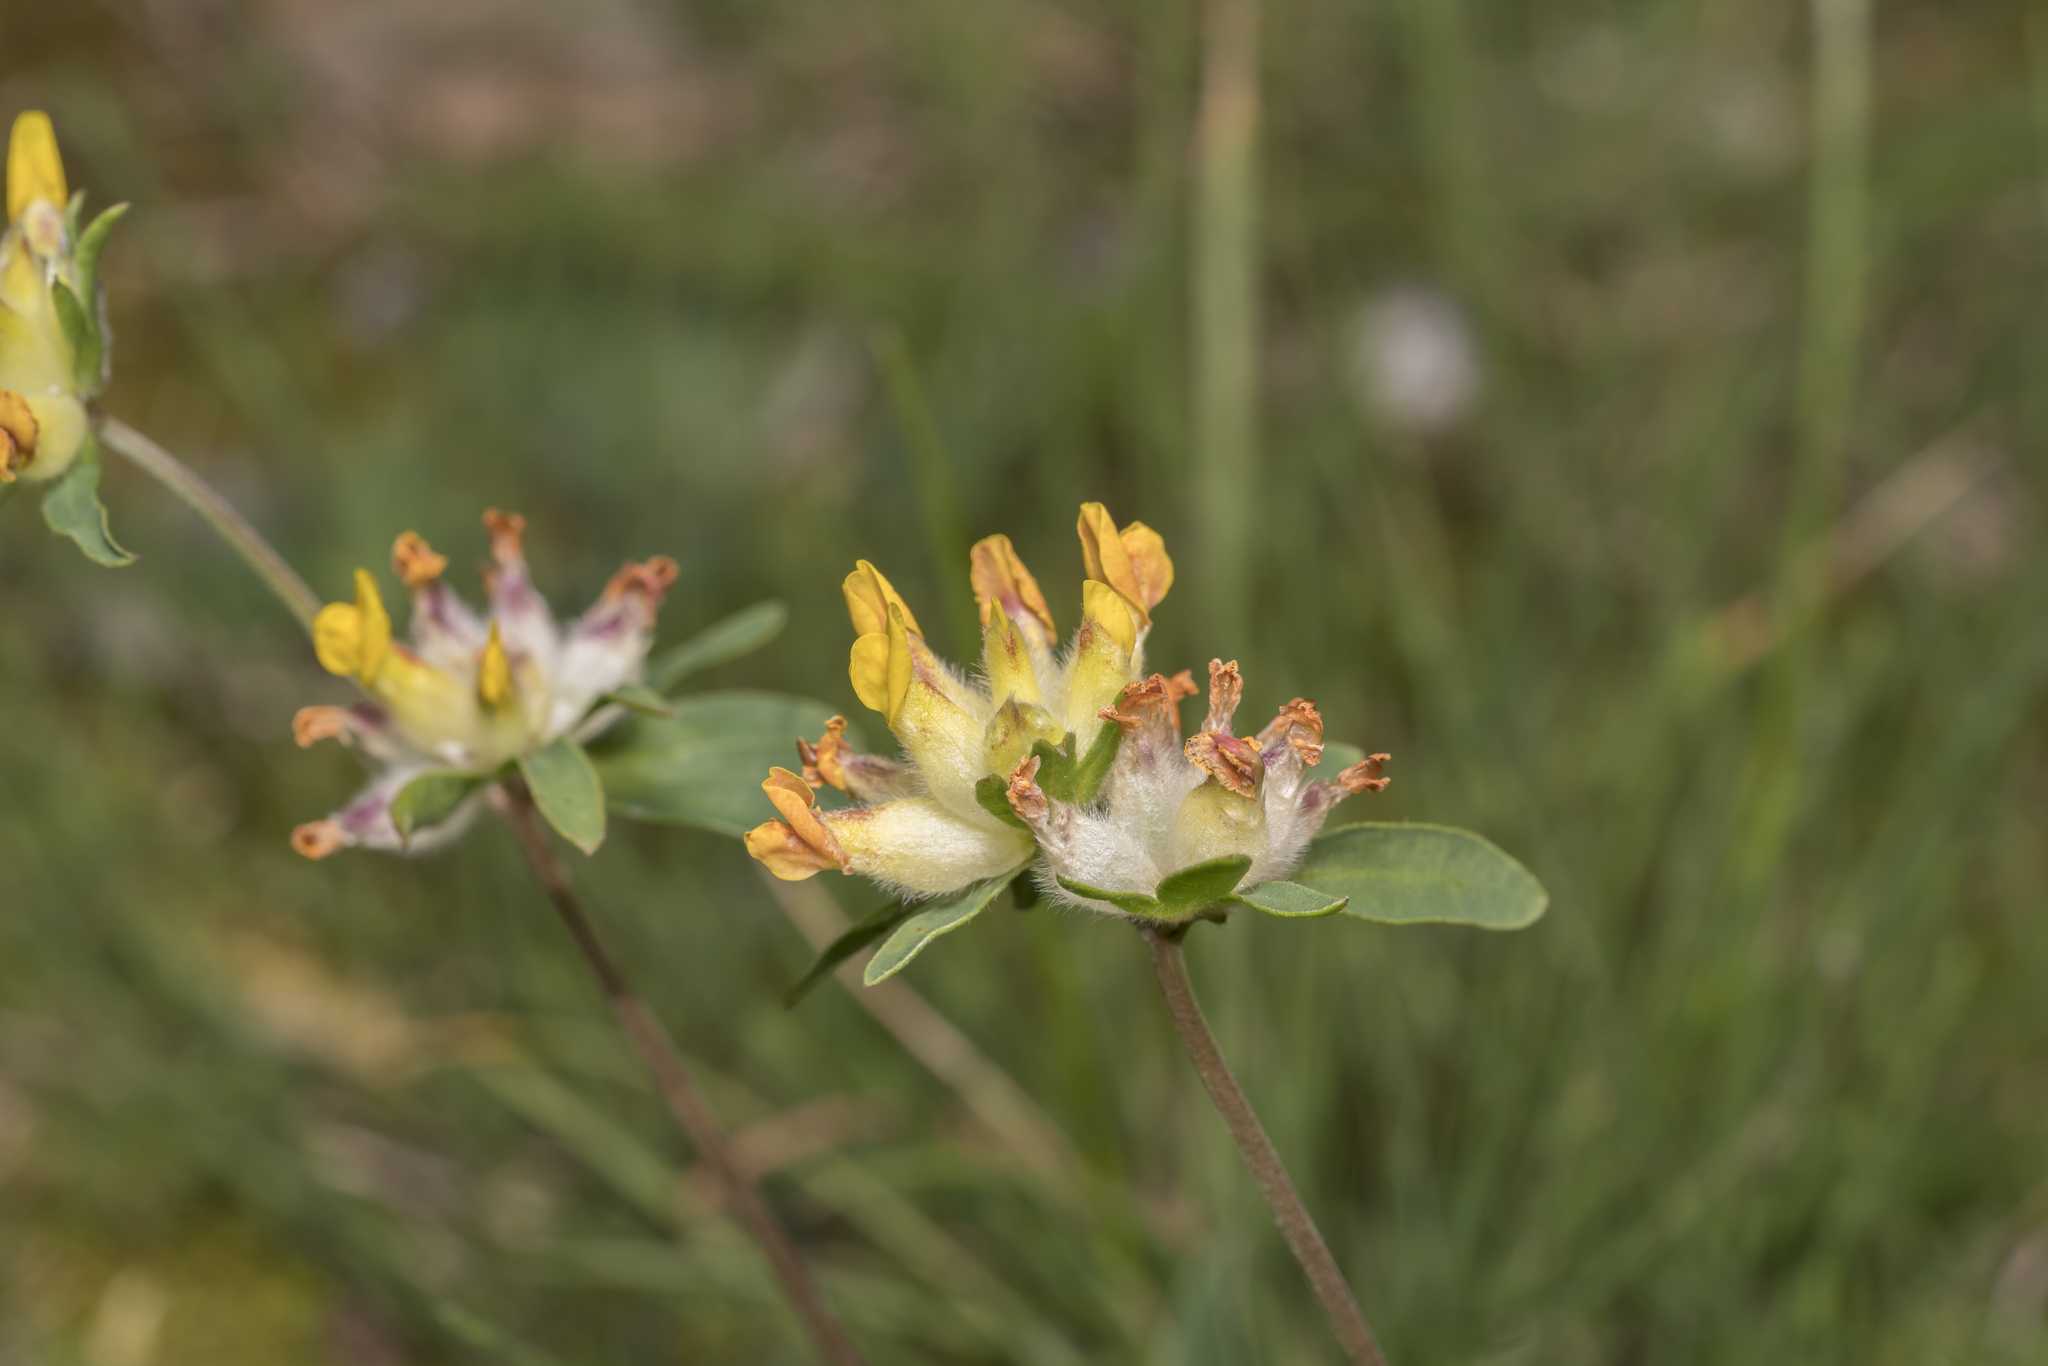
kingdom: Plantae
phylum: Tracheophyta
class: Magnoliopsida
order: Fabales
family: Fabaceae
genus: Anthyllis
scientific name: Anthyllis vulneraria
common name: Kidney vetch
